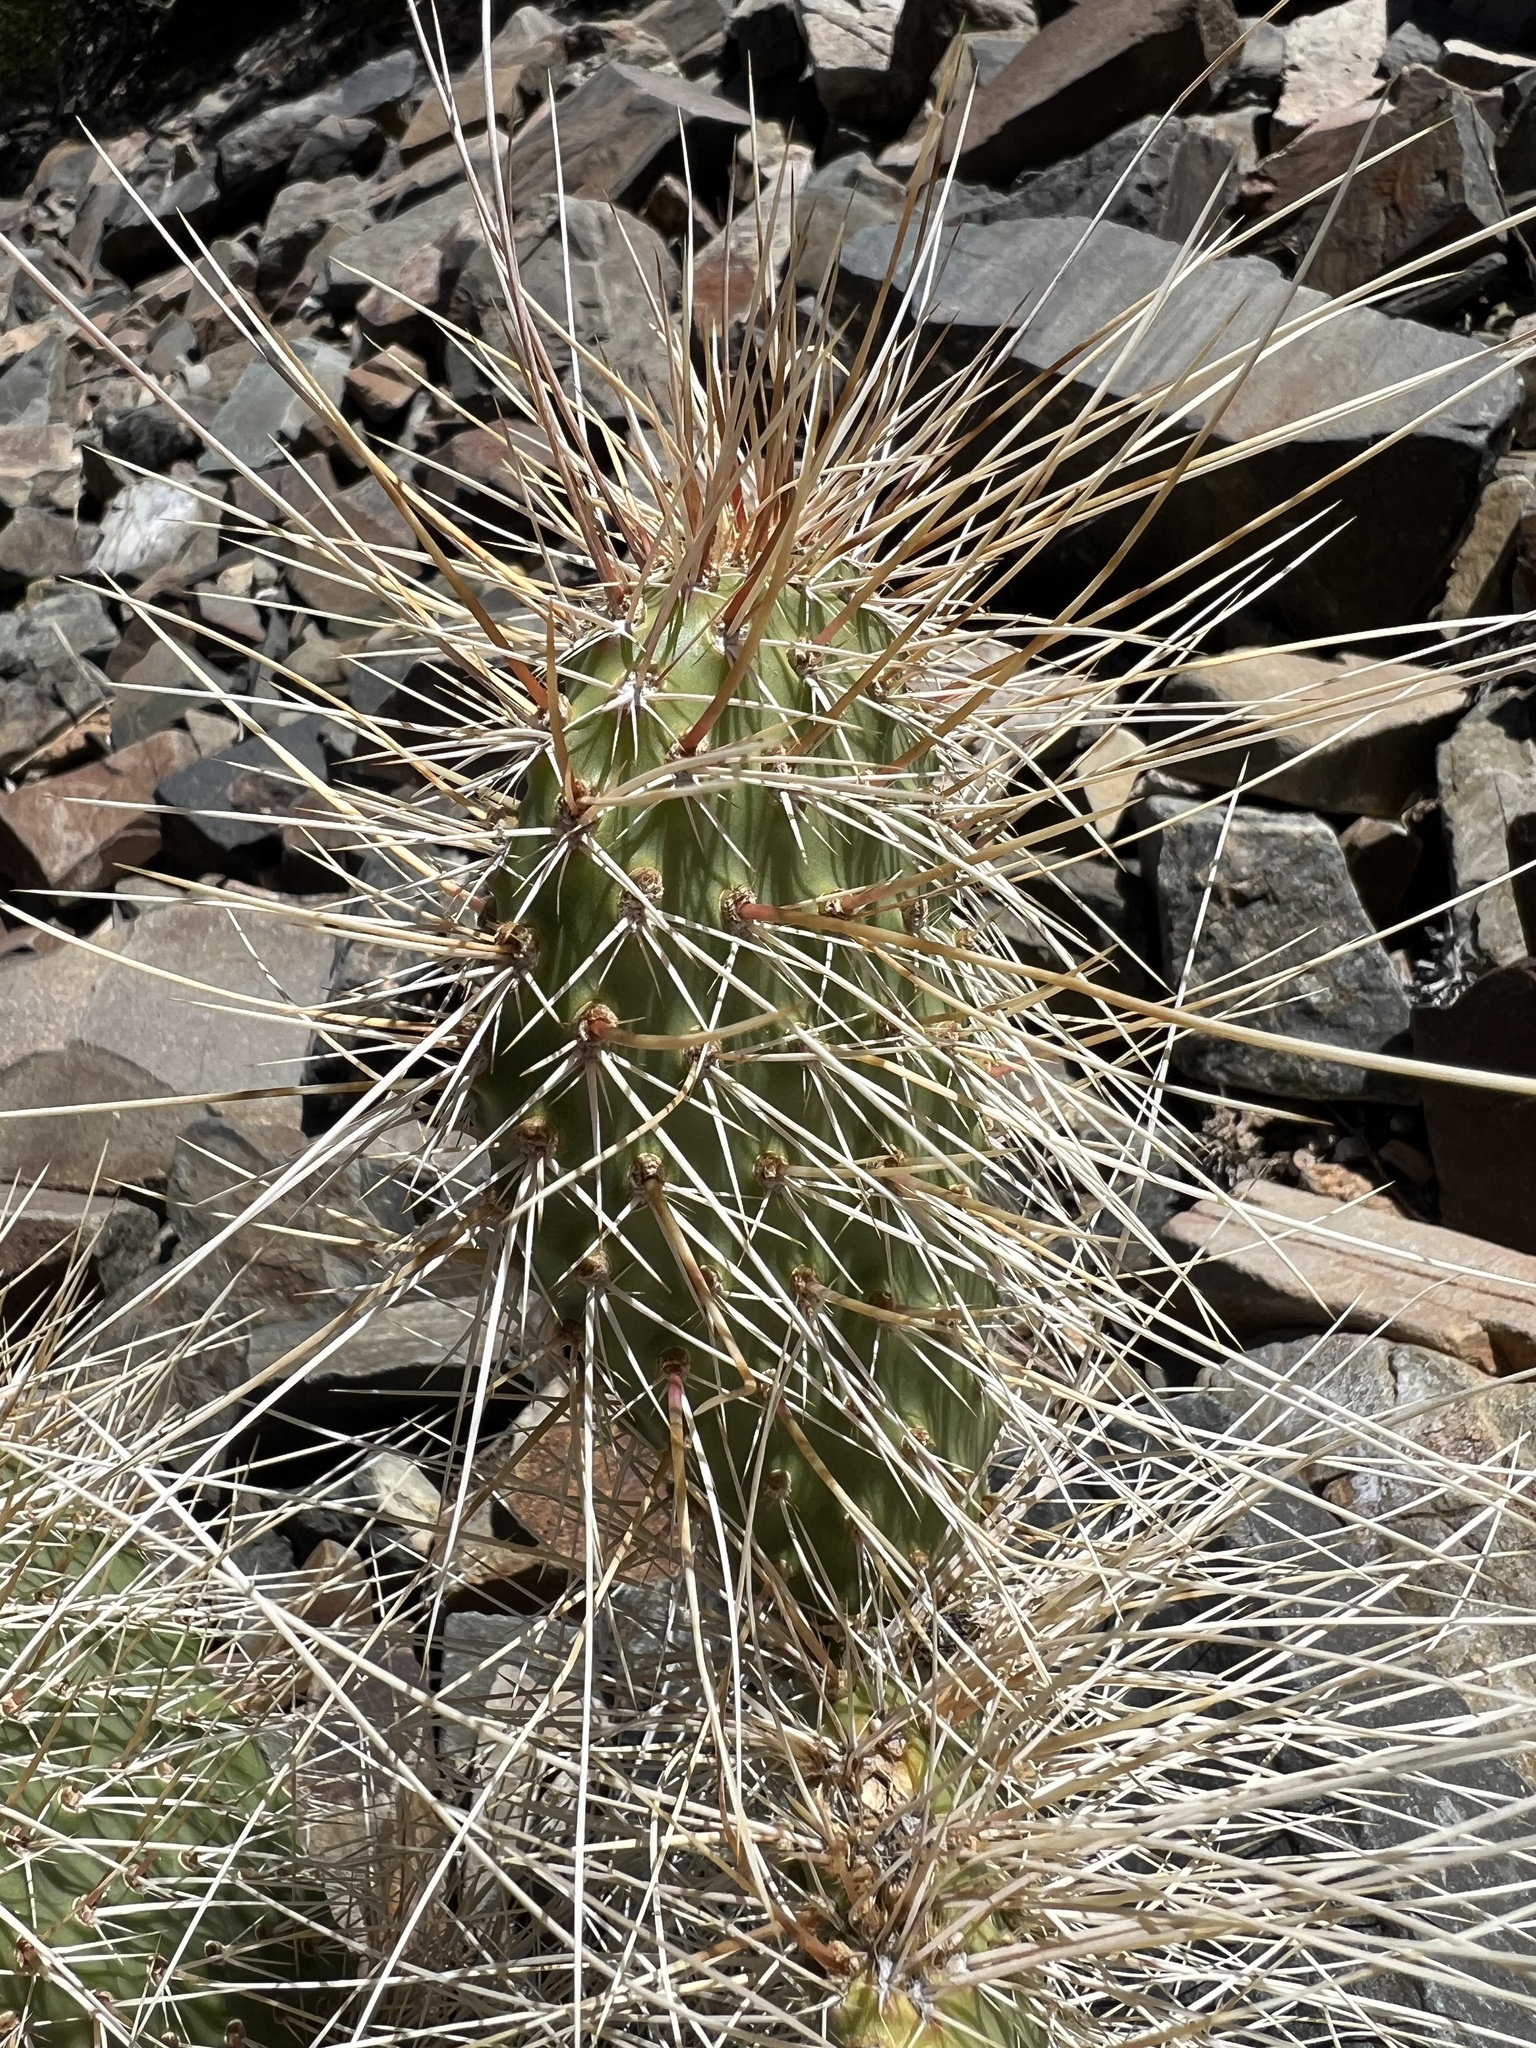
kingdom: Plantae
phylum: Tracheophyta
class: Magnoliopsida
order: Caryophyllales
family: Cactaceae
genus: Opuntia
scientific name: Opuntia polyacantha
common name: Plains prickly-pear
